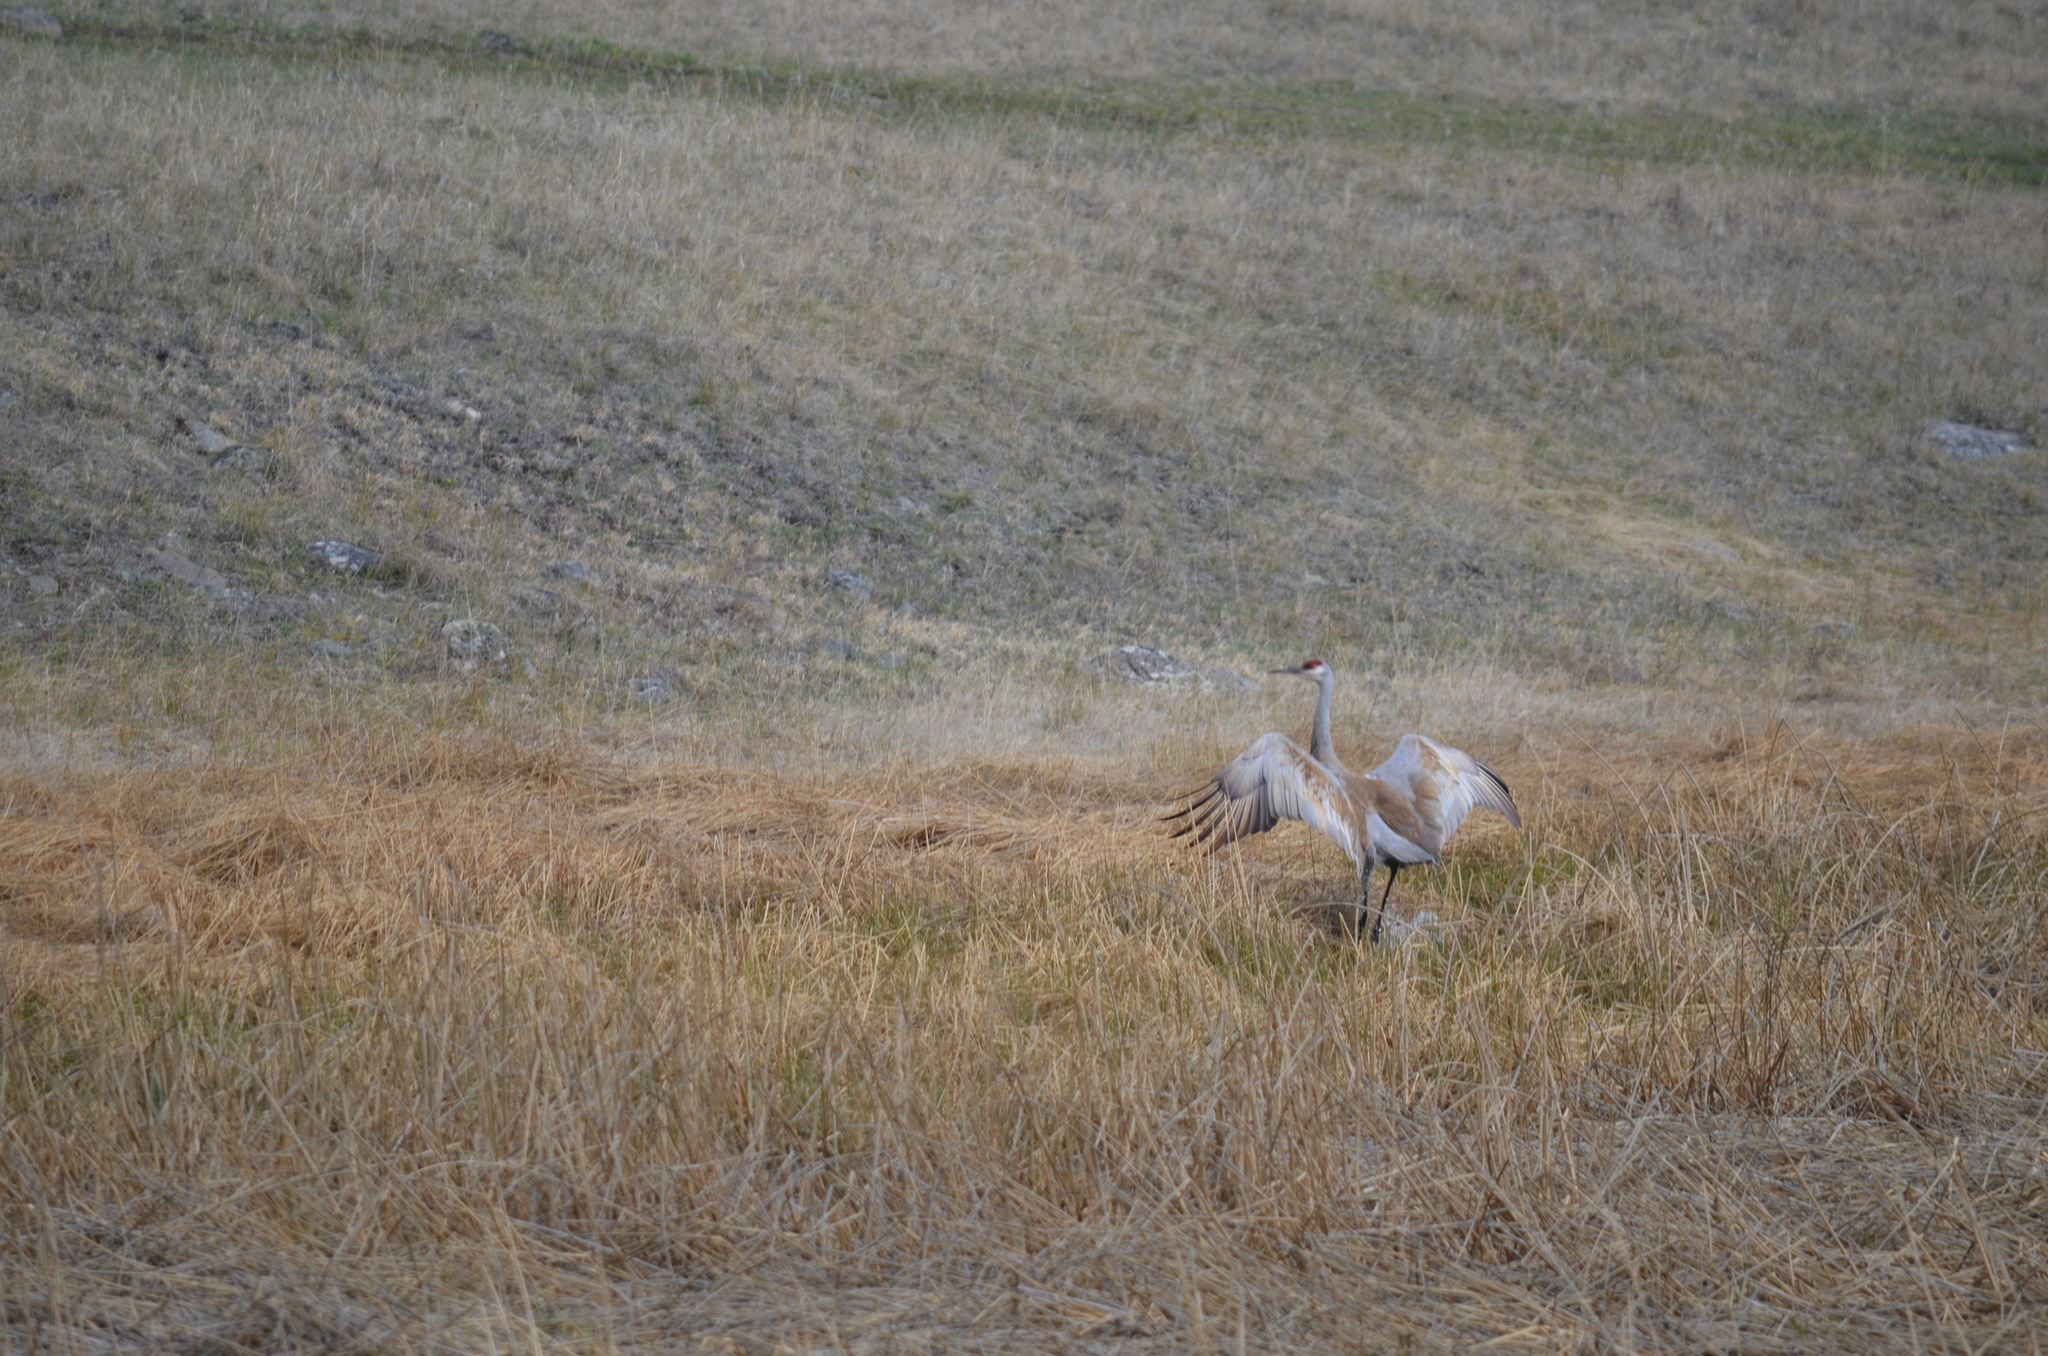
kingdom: Animalia
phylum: Chordata
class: Aves
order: Gruiformes
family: Gruidae
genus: Grus
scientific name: Grus canadensis
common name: Sandhill crane
